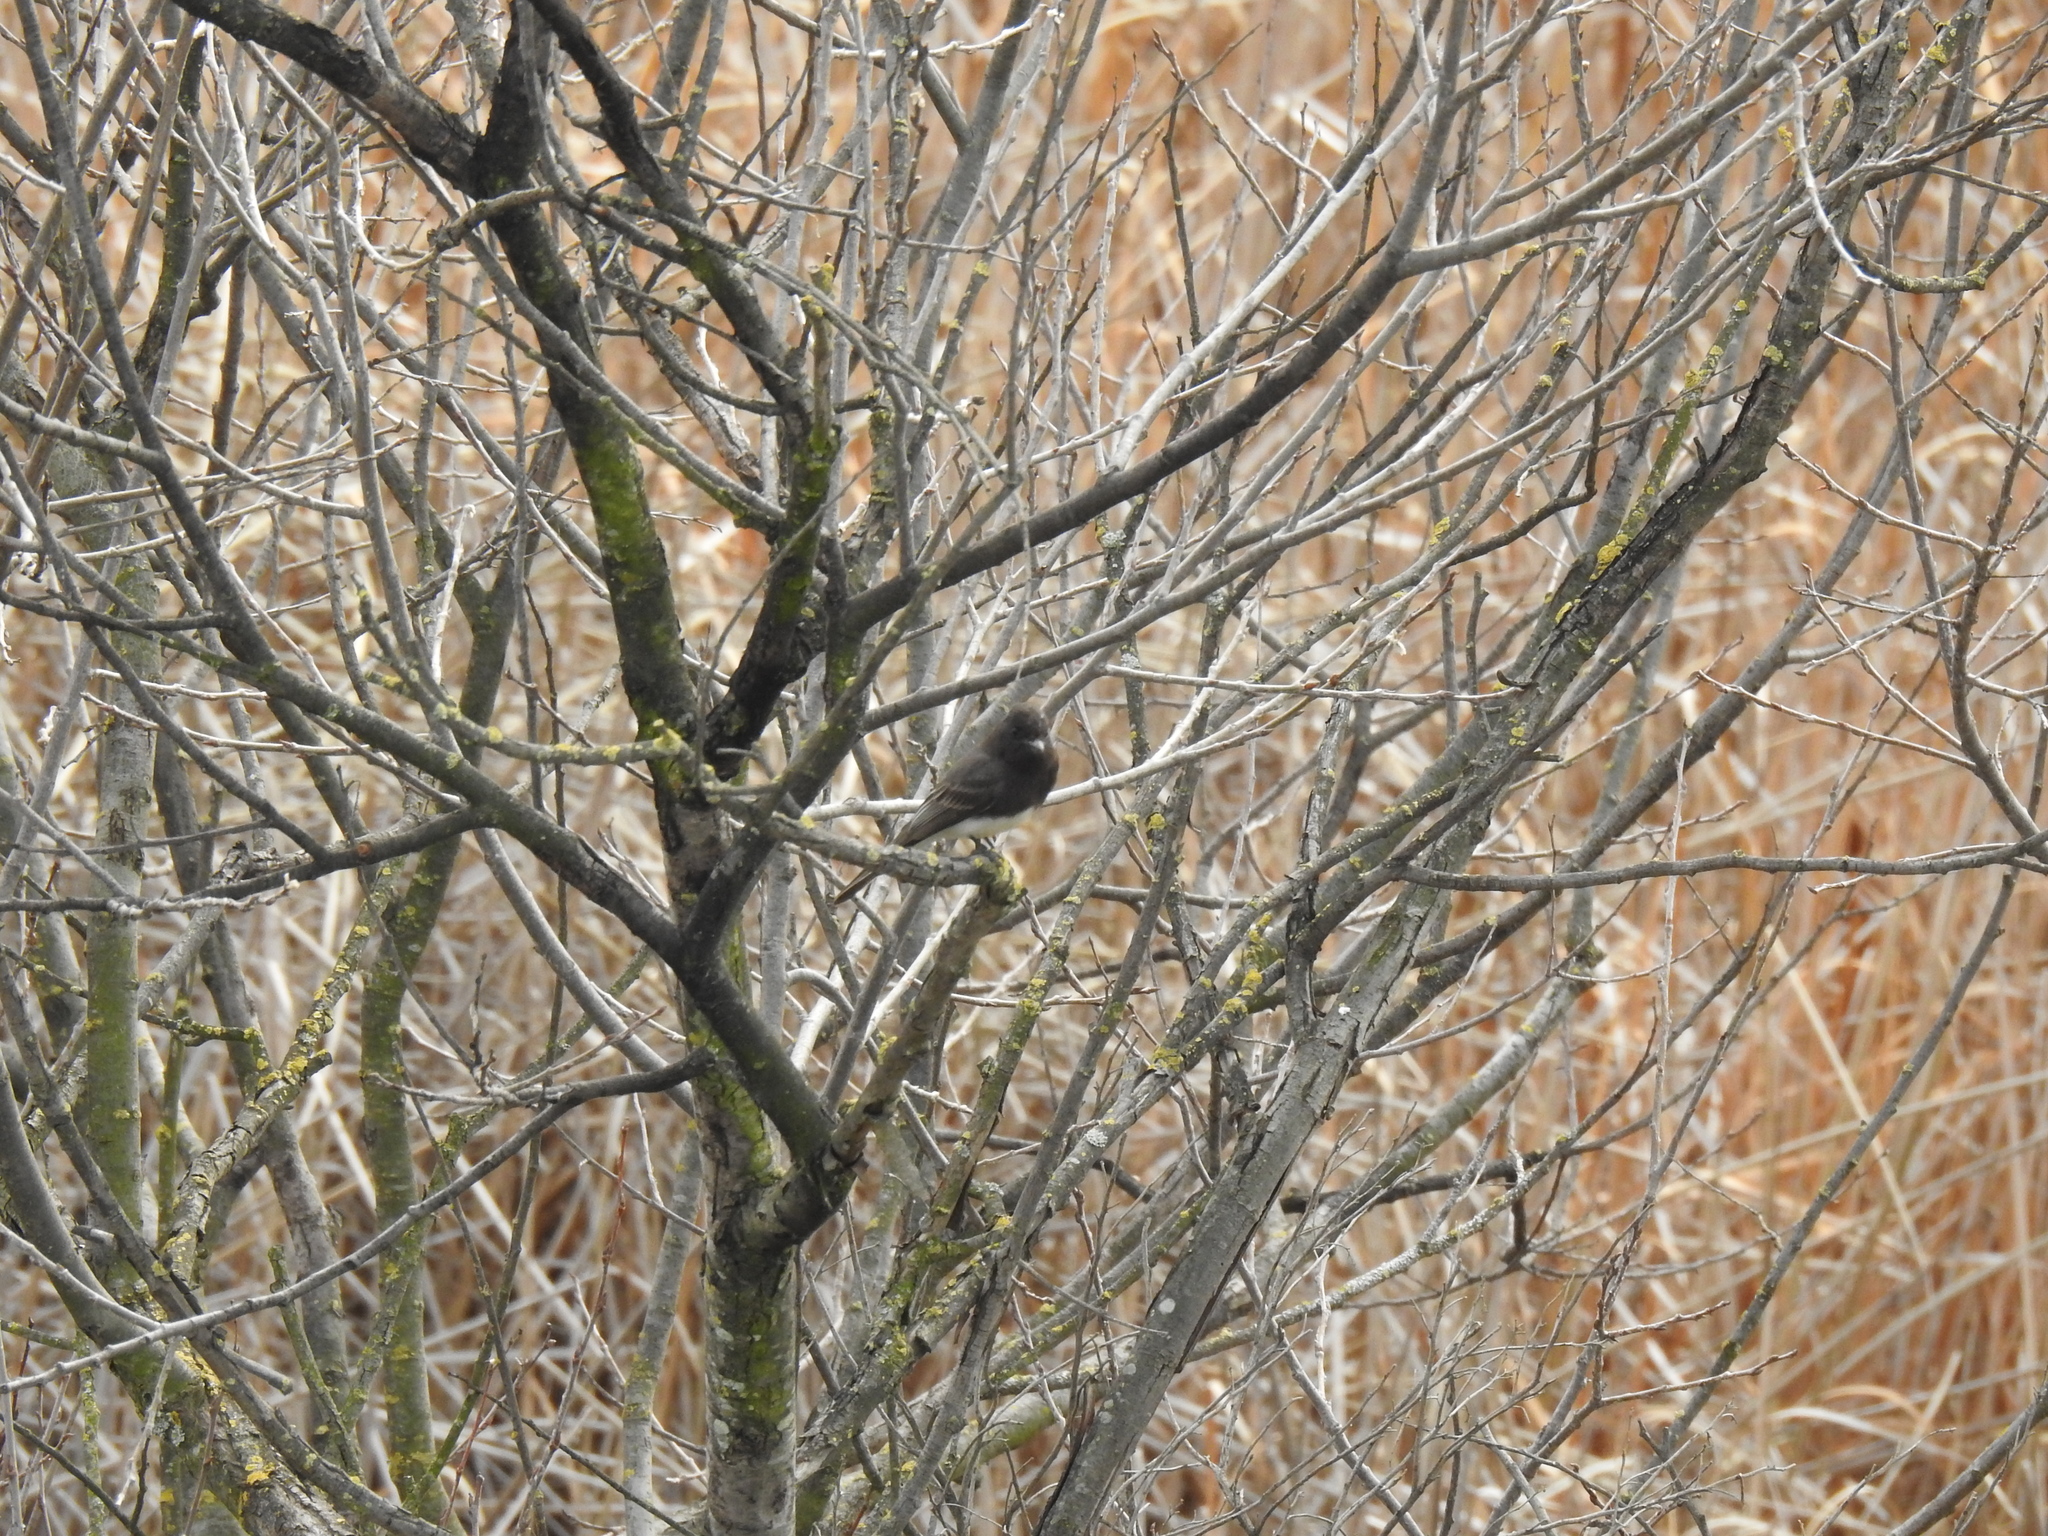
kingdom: Animalia
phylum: Chordata
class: Aves
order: Passeriformes
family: Tyrannidae
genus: Sayornis
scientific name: Sayornis nigricans
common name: Black phoebe
